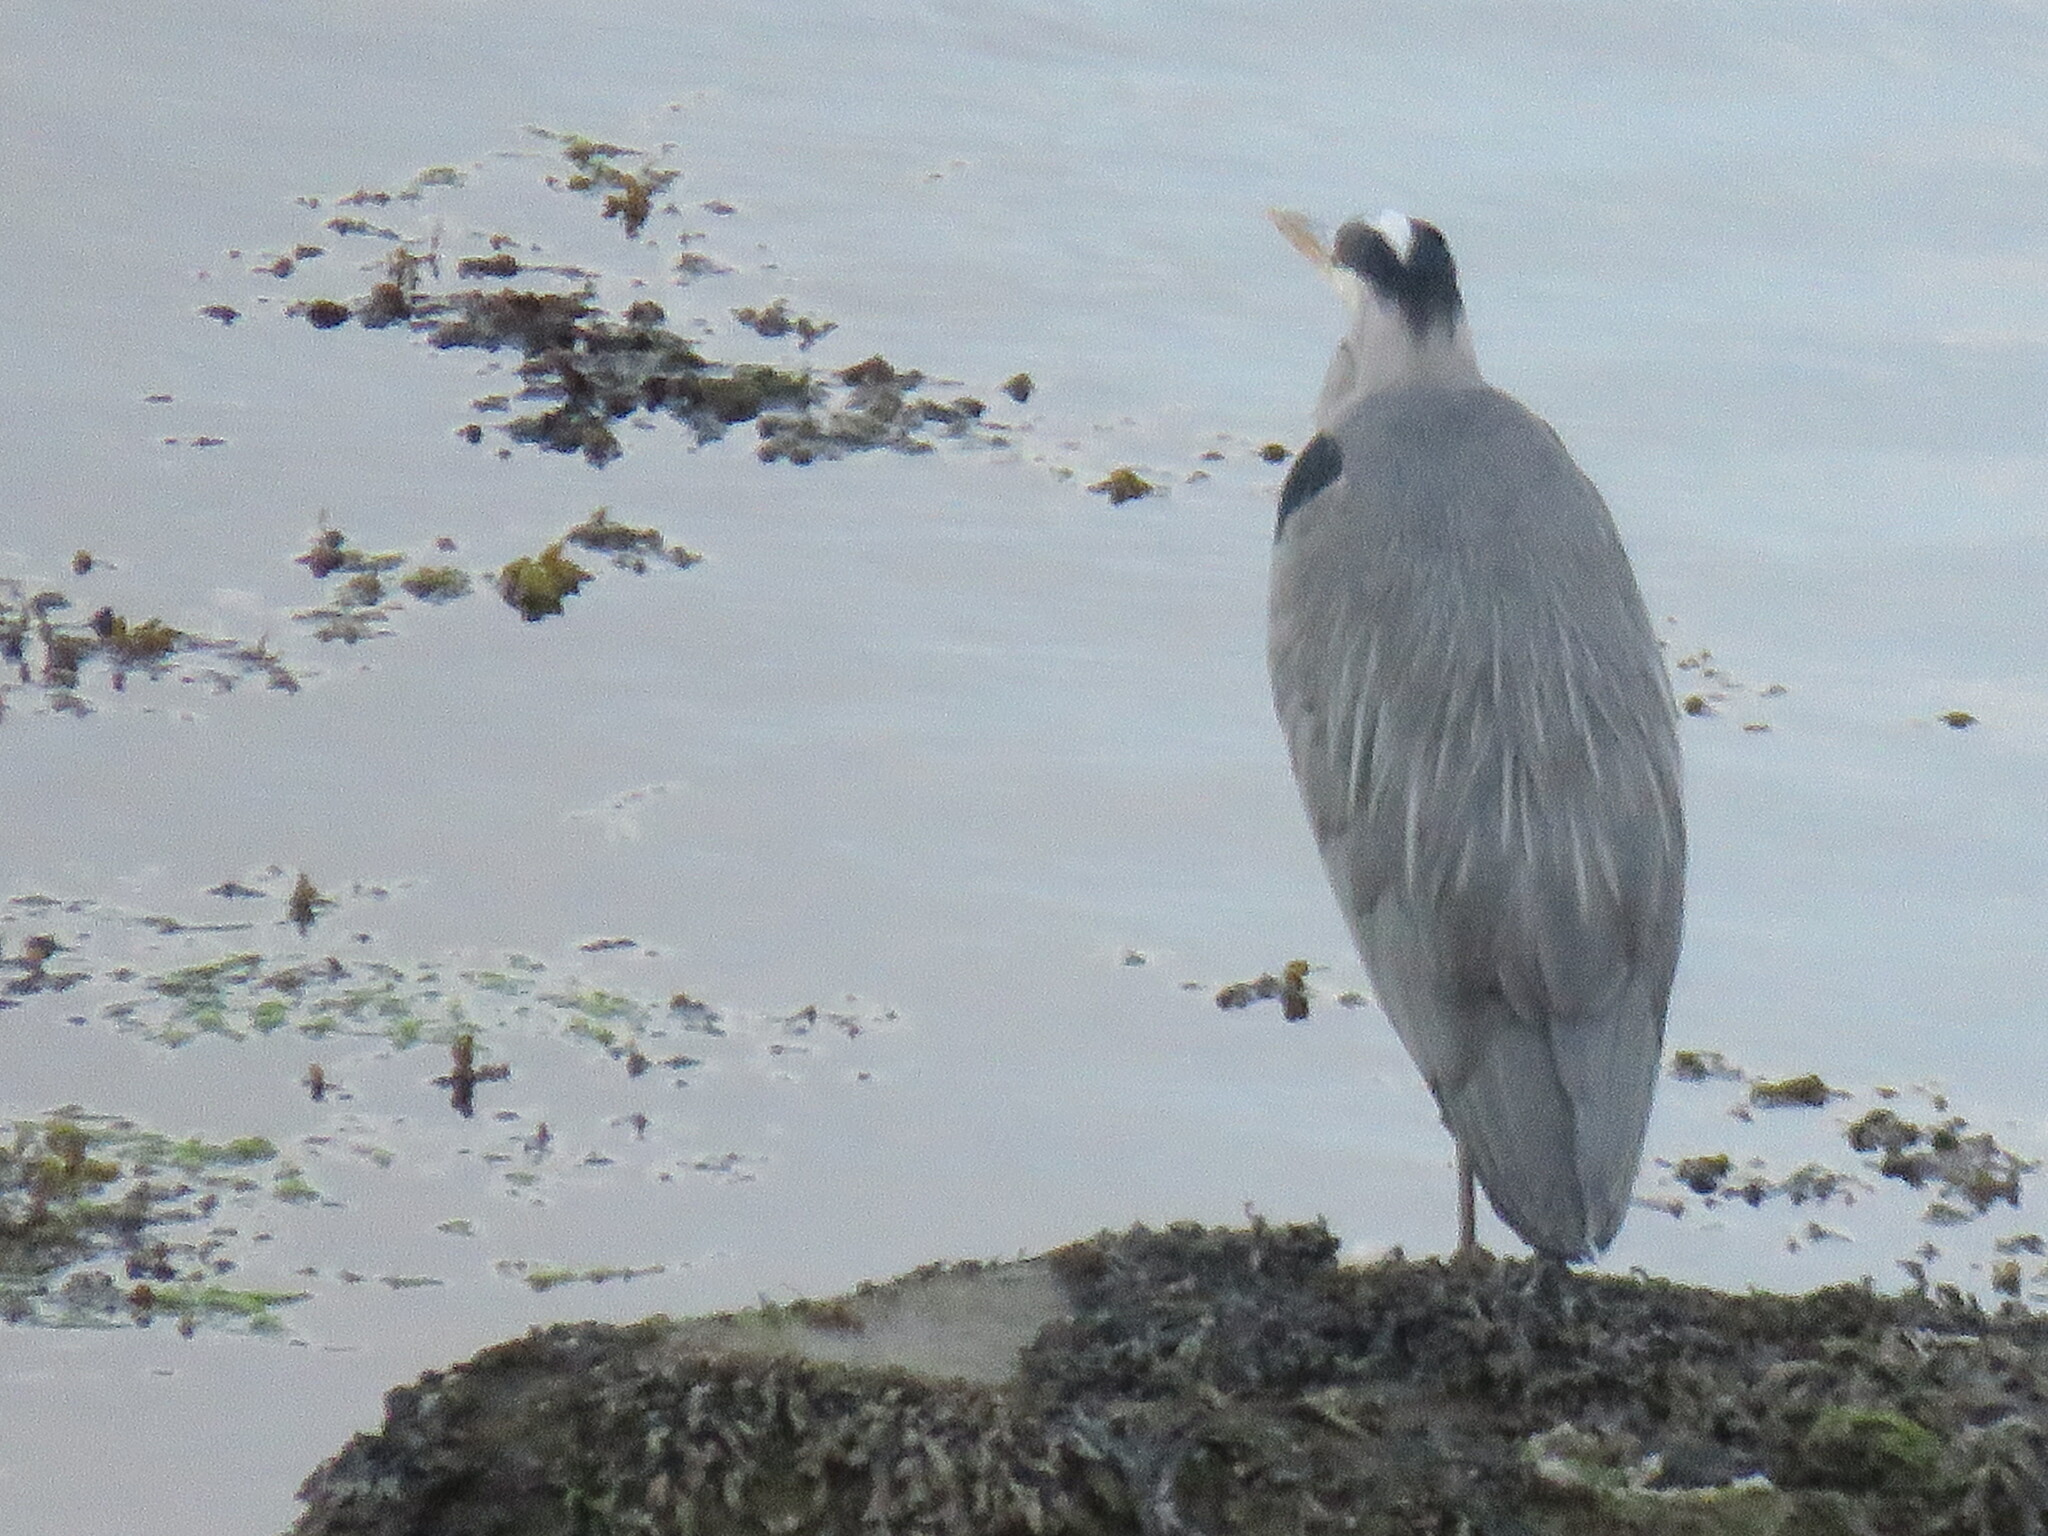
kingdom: Animalia
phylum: Chordata
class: Aves
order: Pelecaniformes
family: Ardeidae
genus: Ardea
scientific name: Ardea cinerea
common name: Grey heron
